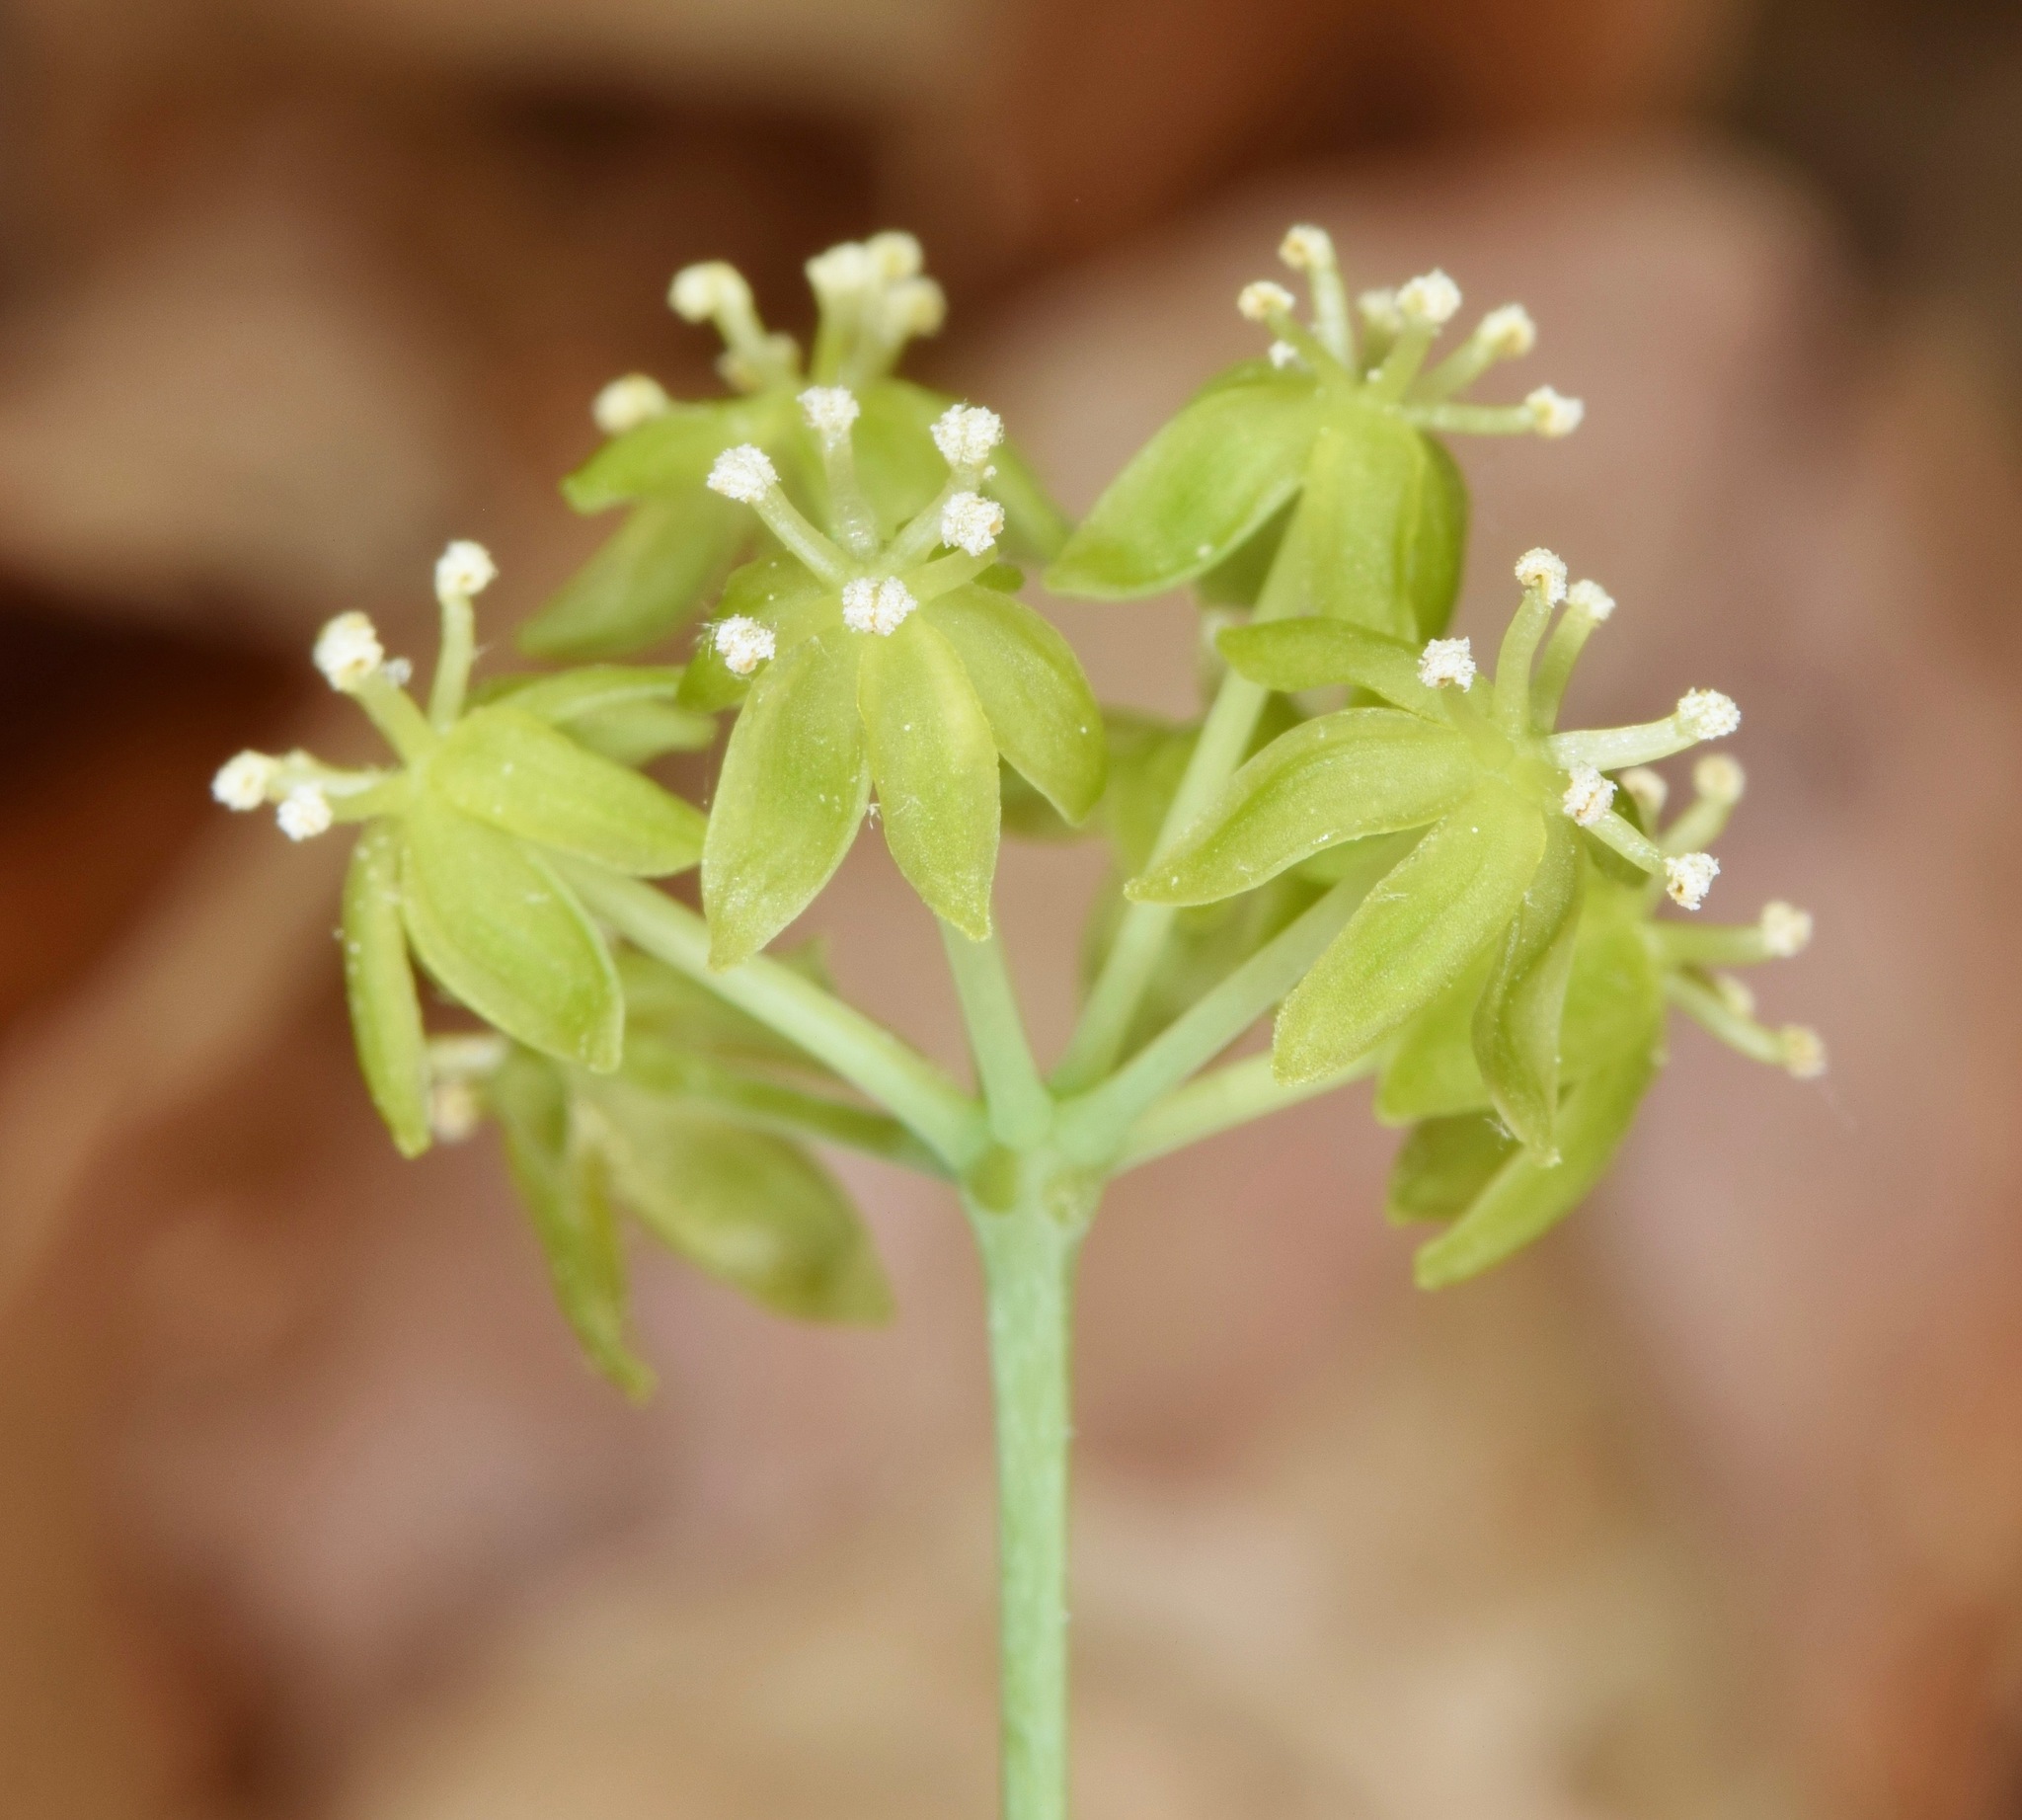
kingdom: Plantae
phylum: Tracheophyta
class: Liliopsida
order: Liliales
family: Smilacaceae
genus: Smilax
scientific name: Smilax hugeri
